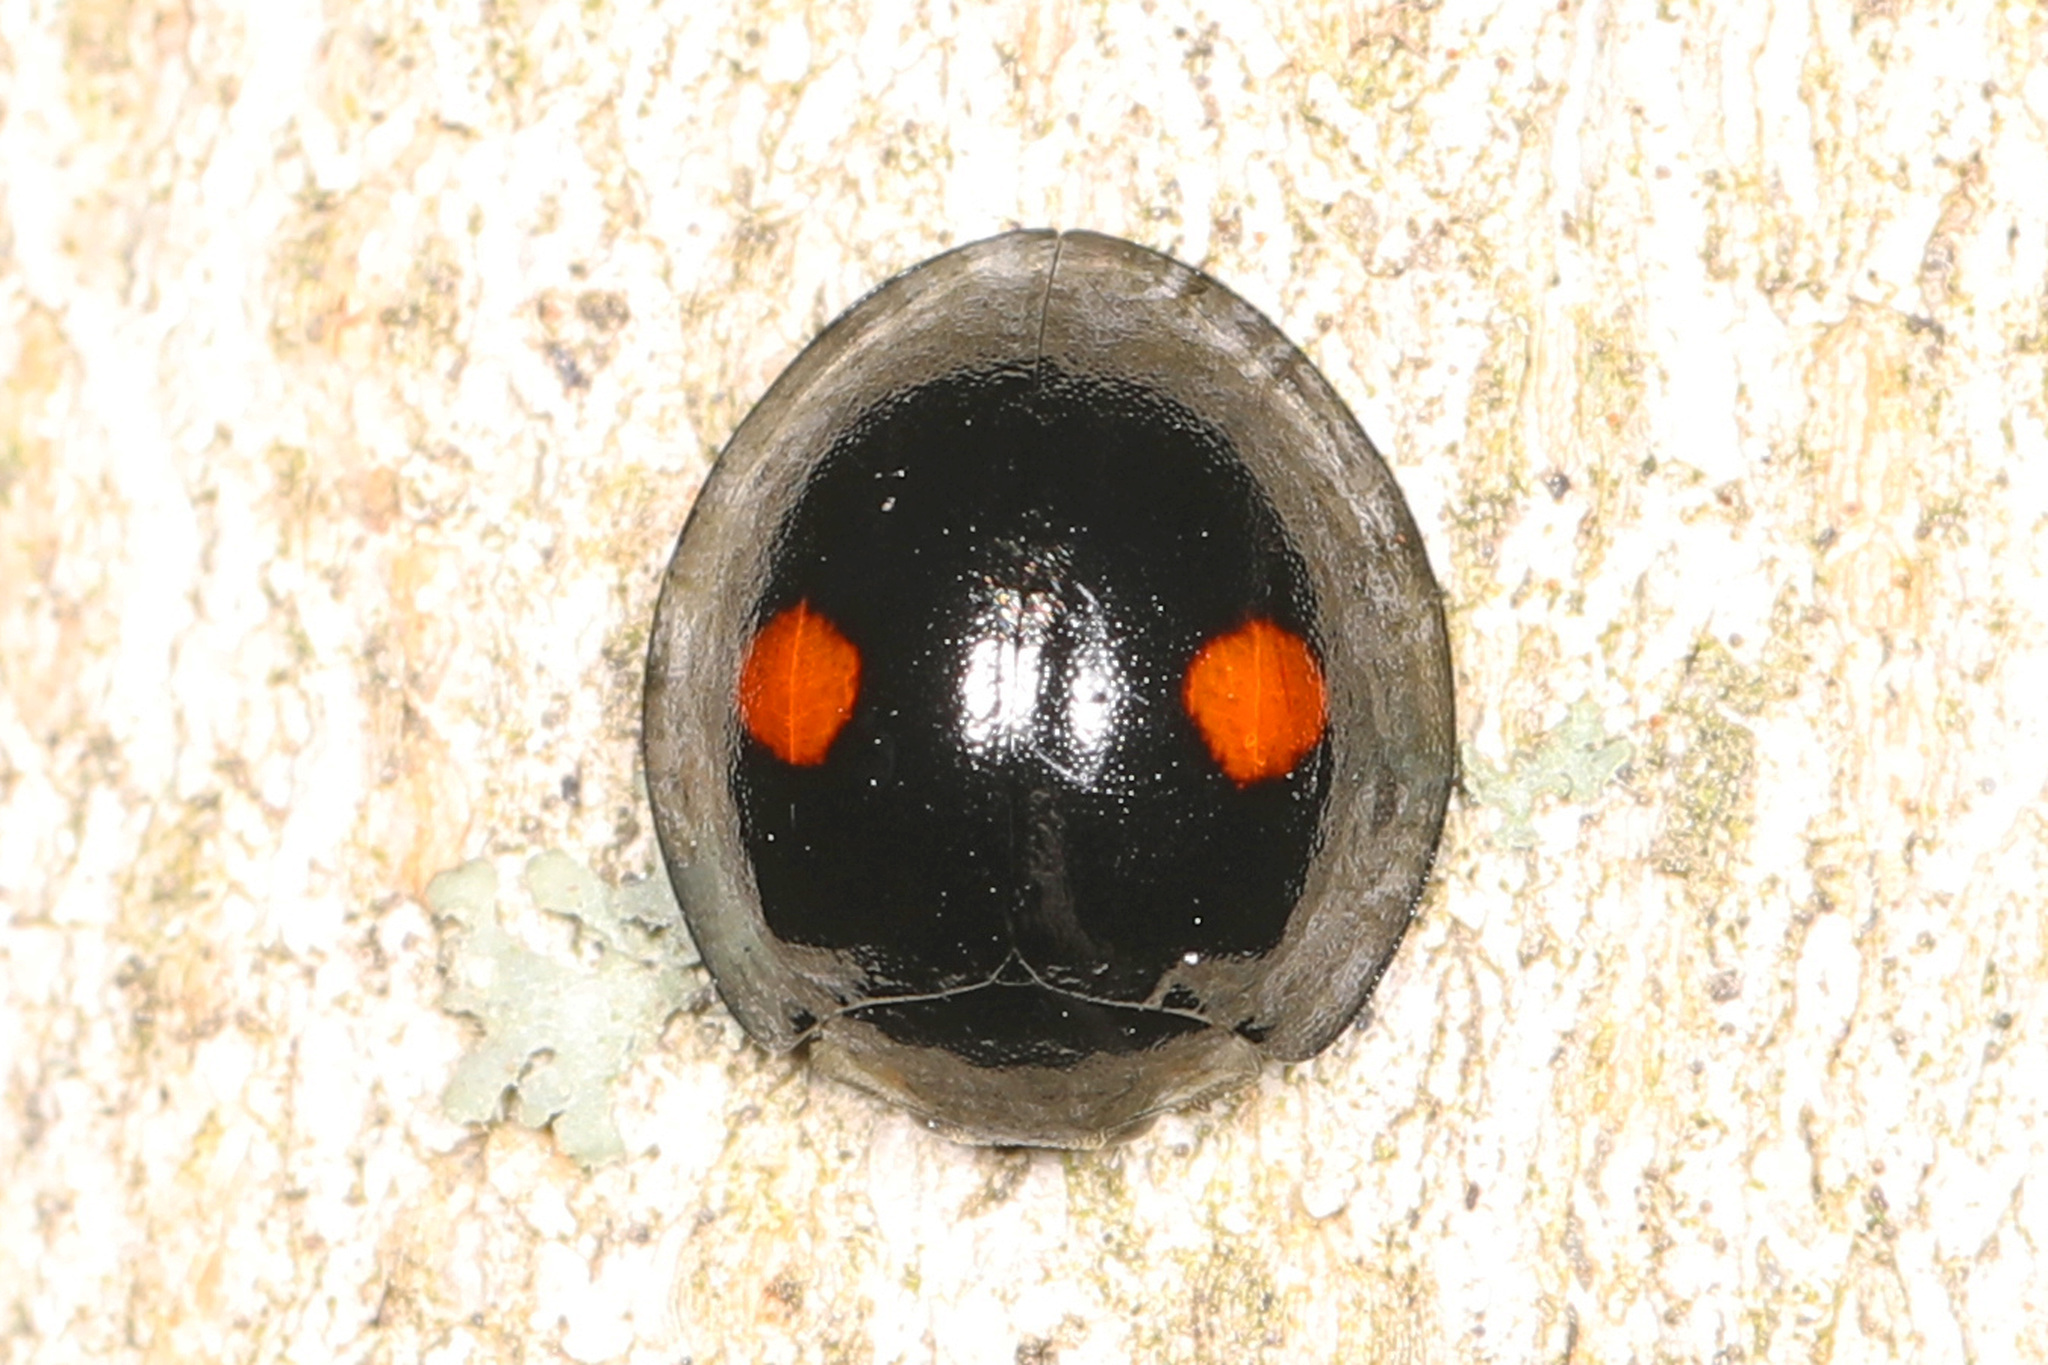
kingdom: Animalia
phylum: Arthropoda
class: Insecta
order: Coleoptera
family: Coccinellidae
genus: Chilocorus
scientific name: Chilocorus stigma
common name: Twicestabbed lady beetle
